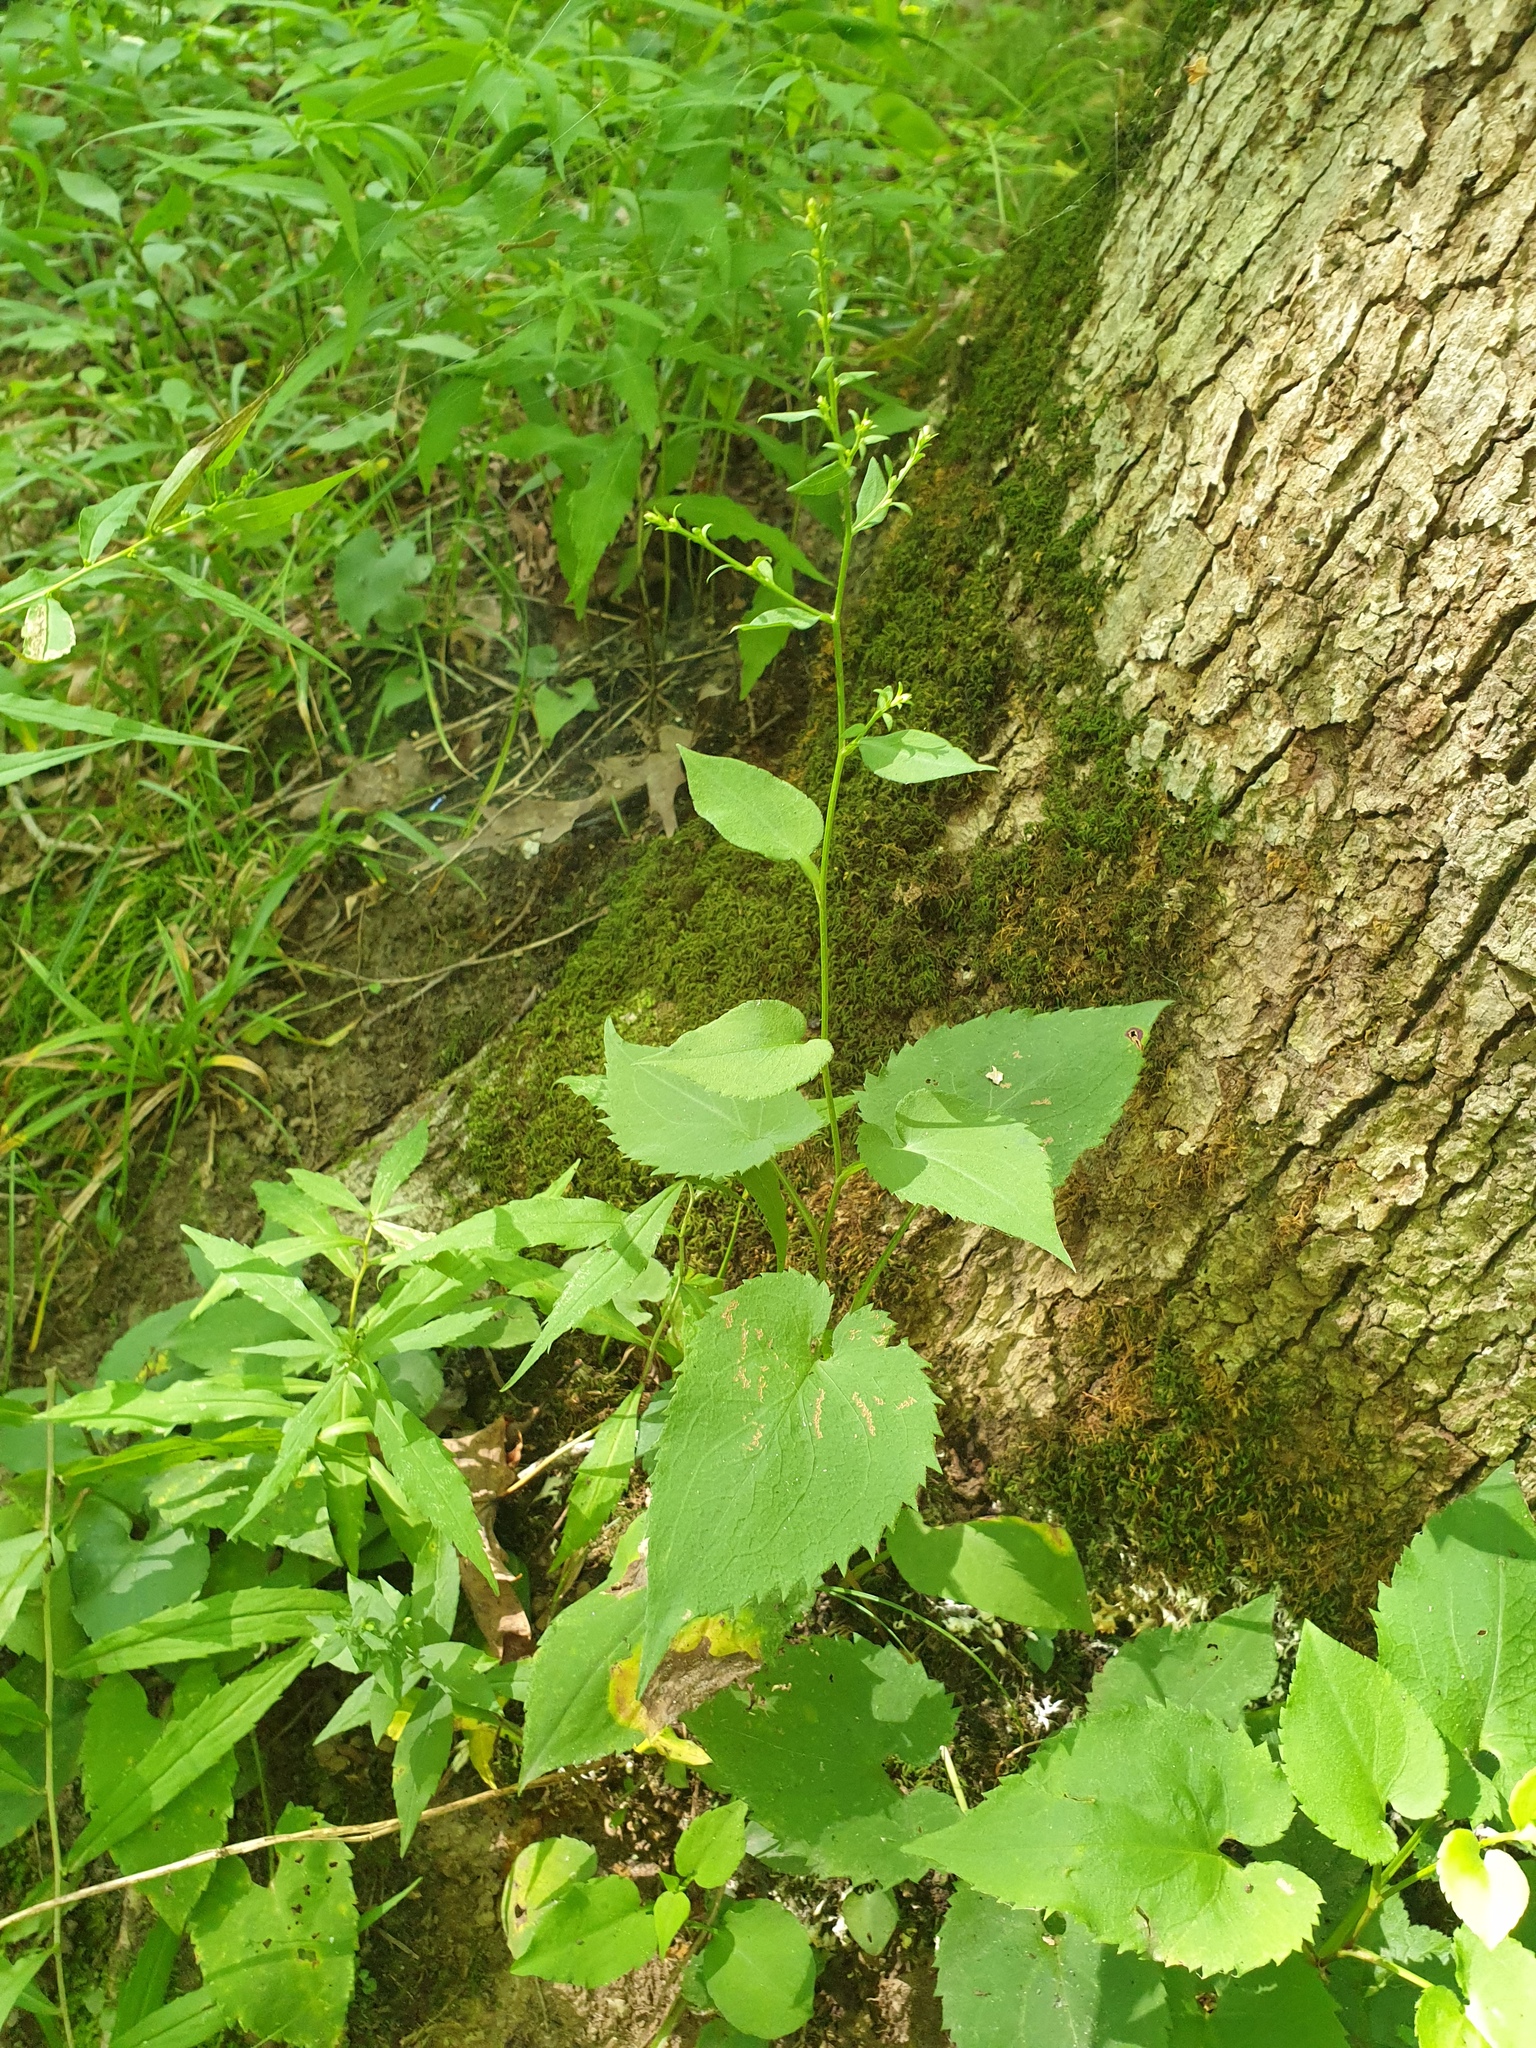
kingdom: Plantae
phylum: Tracheophyta
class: Magnoliopsida
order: Asterales
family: Asteraceae
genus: Symphyotrichum
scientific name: Symphyotrichum cordifolium
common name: Beeweed
